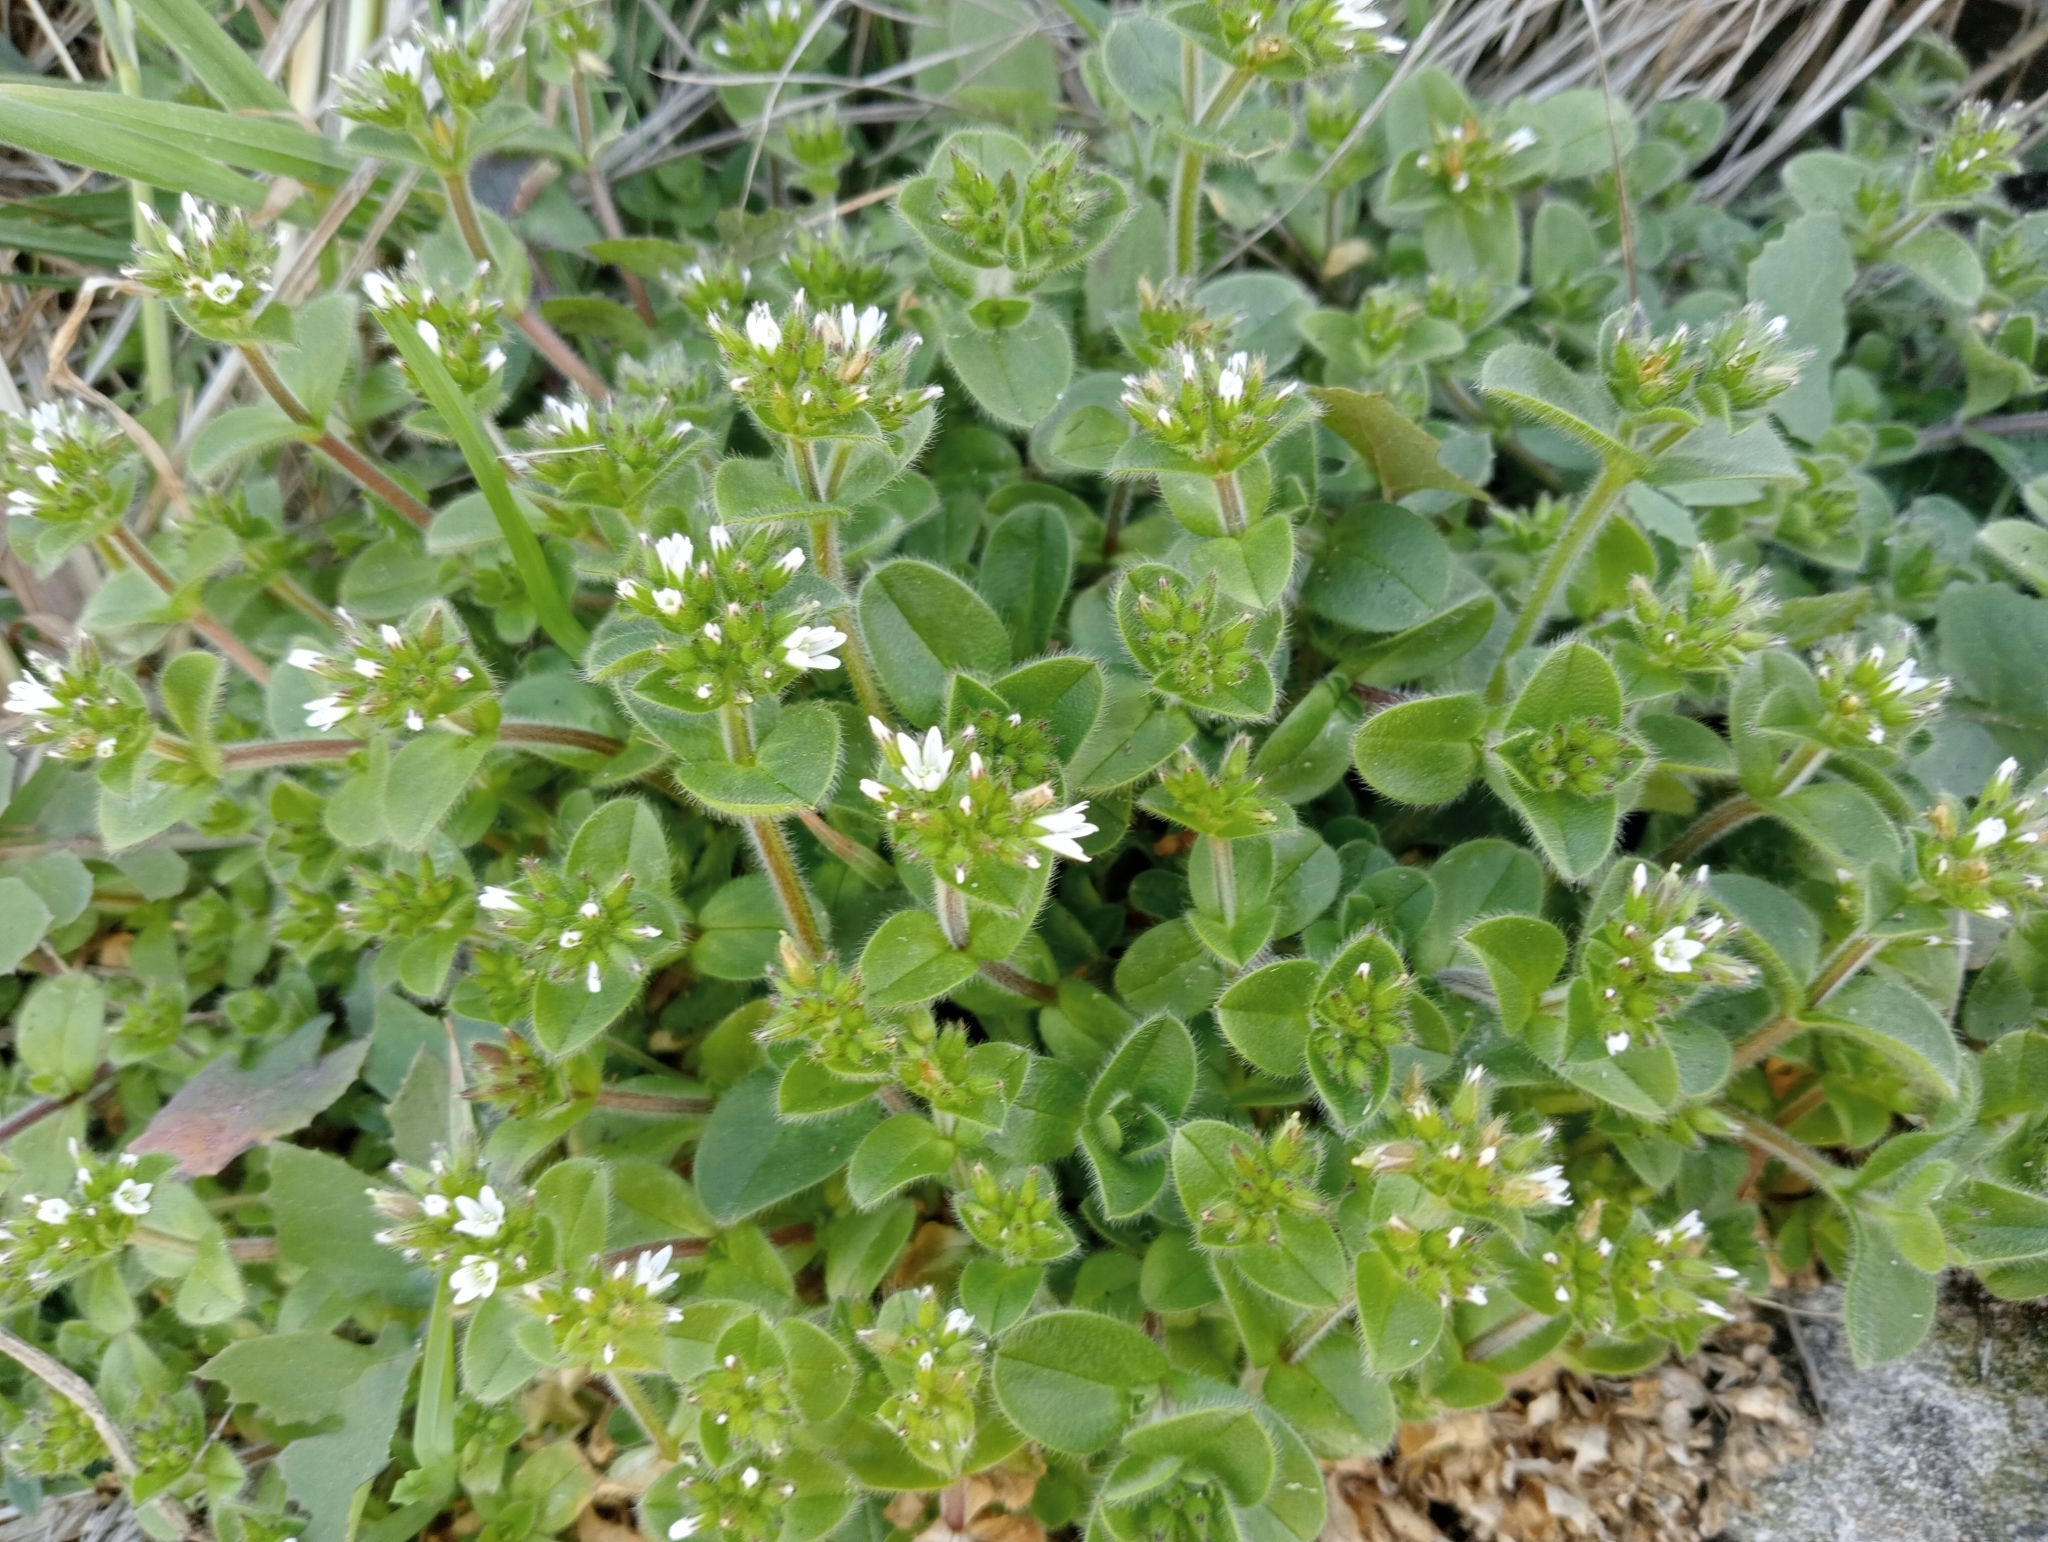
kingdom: Plantae
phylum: Tracheophyta
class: Magnoliopsida
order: Caryophyllales
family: Caryophyllaceae
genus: Cerastium
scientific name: Cerastium glomeratum
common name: Sticky chickweed
